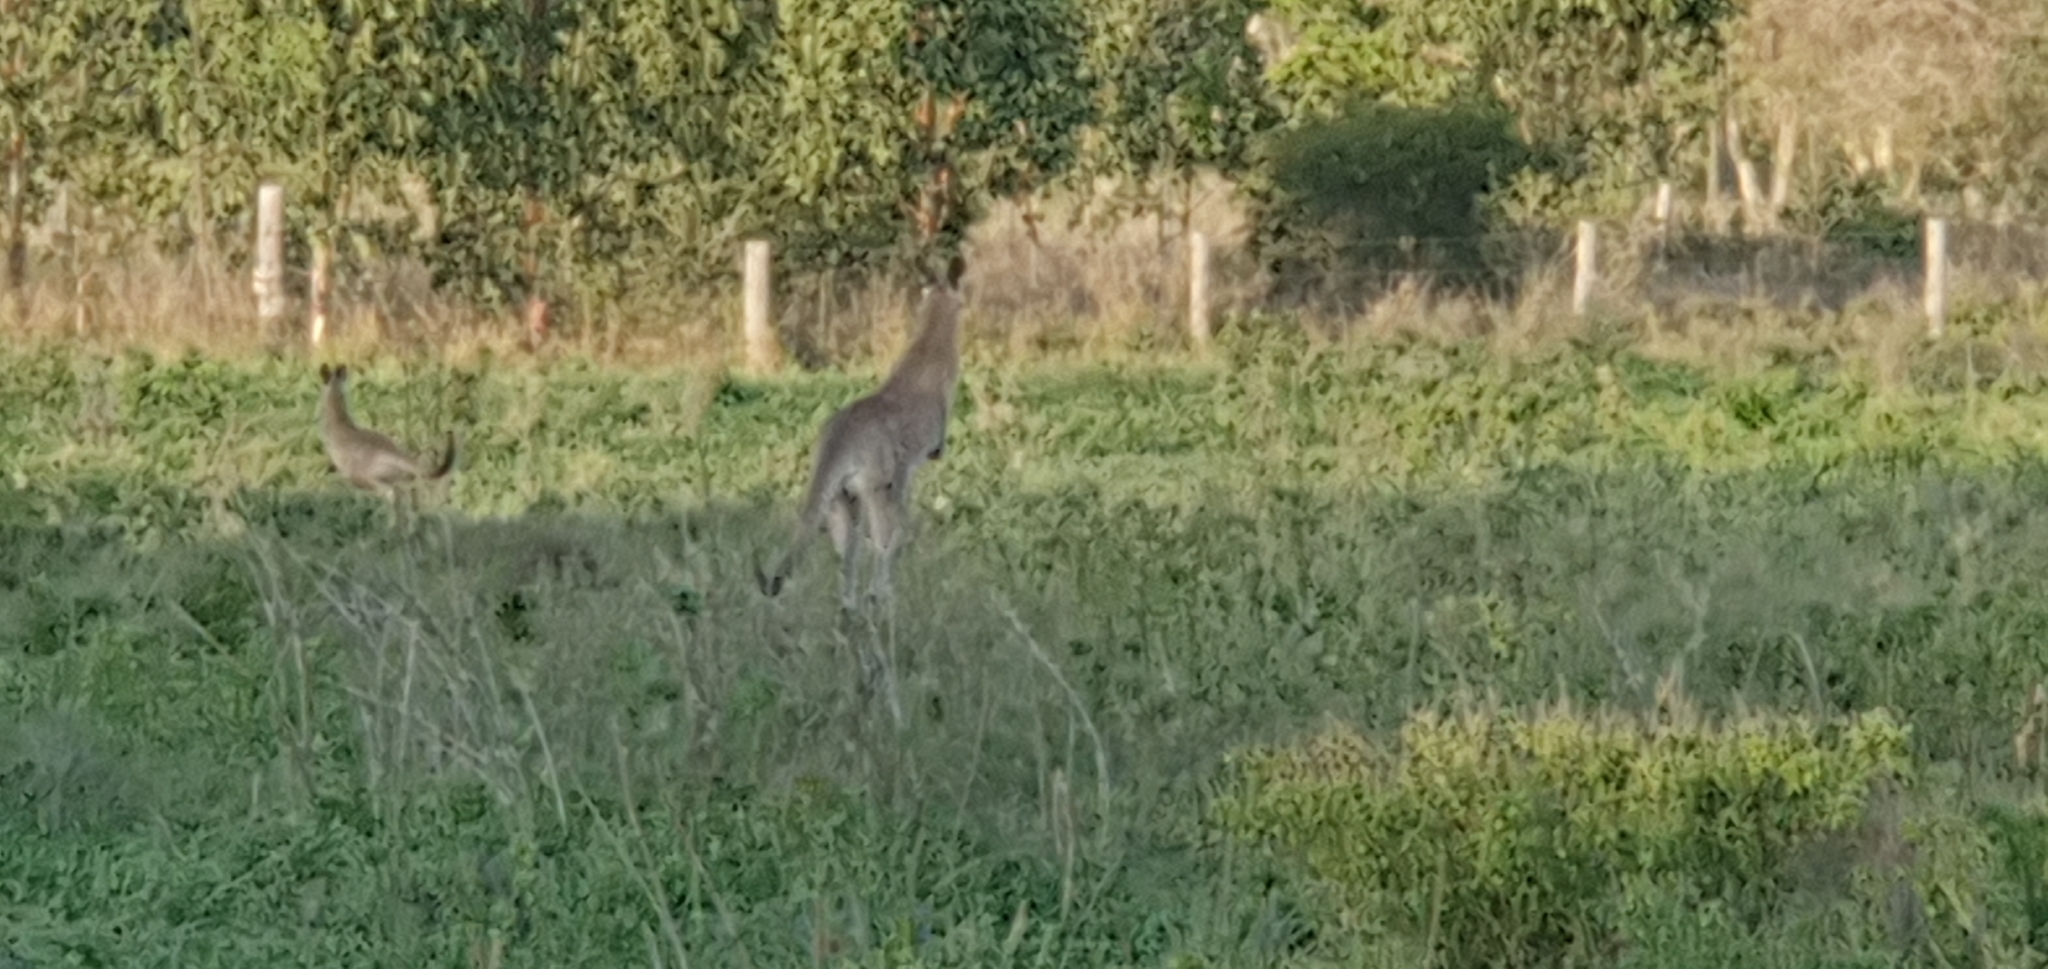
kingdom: Animalia
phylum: Chordata
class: Mammalia
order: Diprotodontia
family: Macropodidae
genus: Macropus
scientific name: Macropus giganteus
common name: Eastern grey kangaroo
